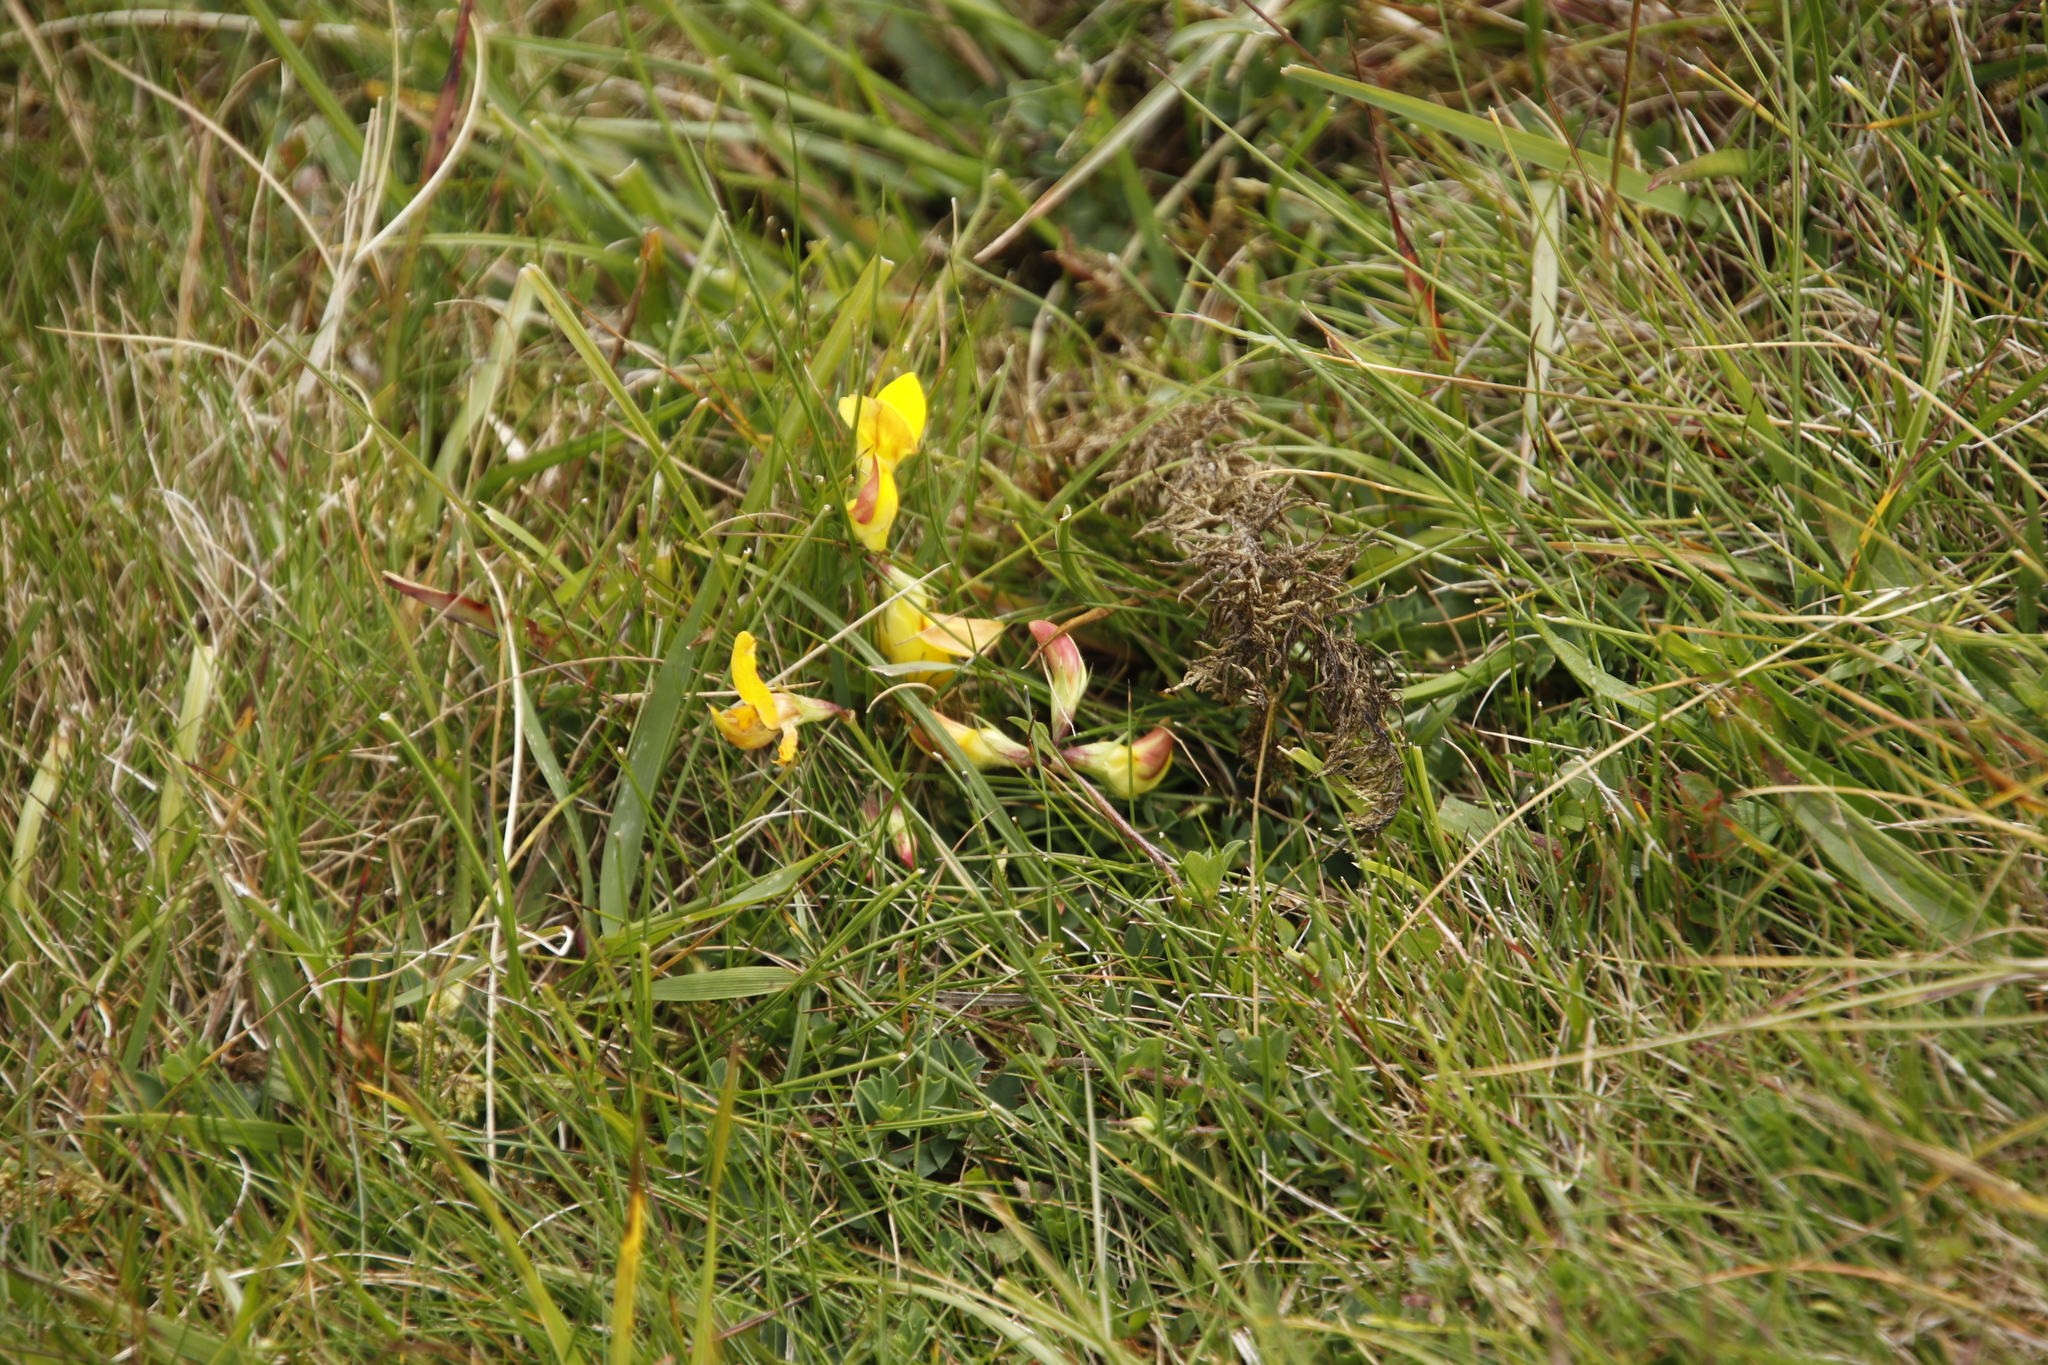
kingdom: Plantae
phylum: Tracheophyta
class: Magnoliopsida
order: Fabales
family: Fabaceae
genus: Lotus
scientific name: Lotus corniculatus
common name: Common bird's-foot-trefoil
